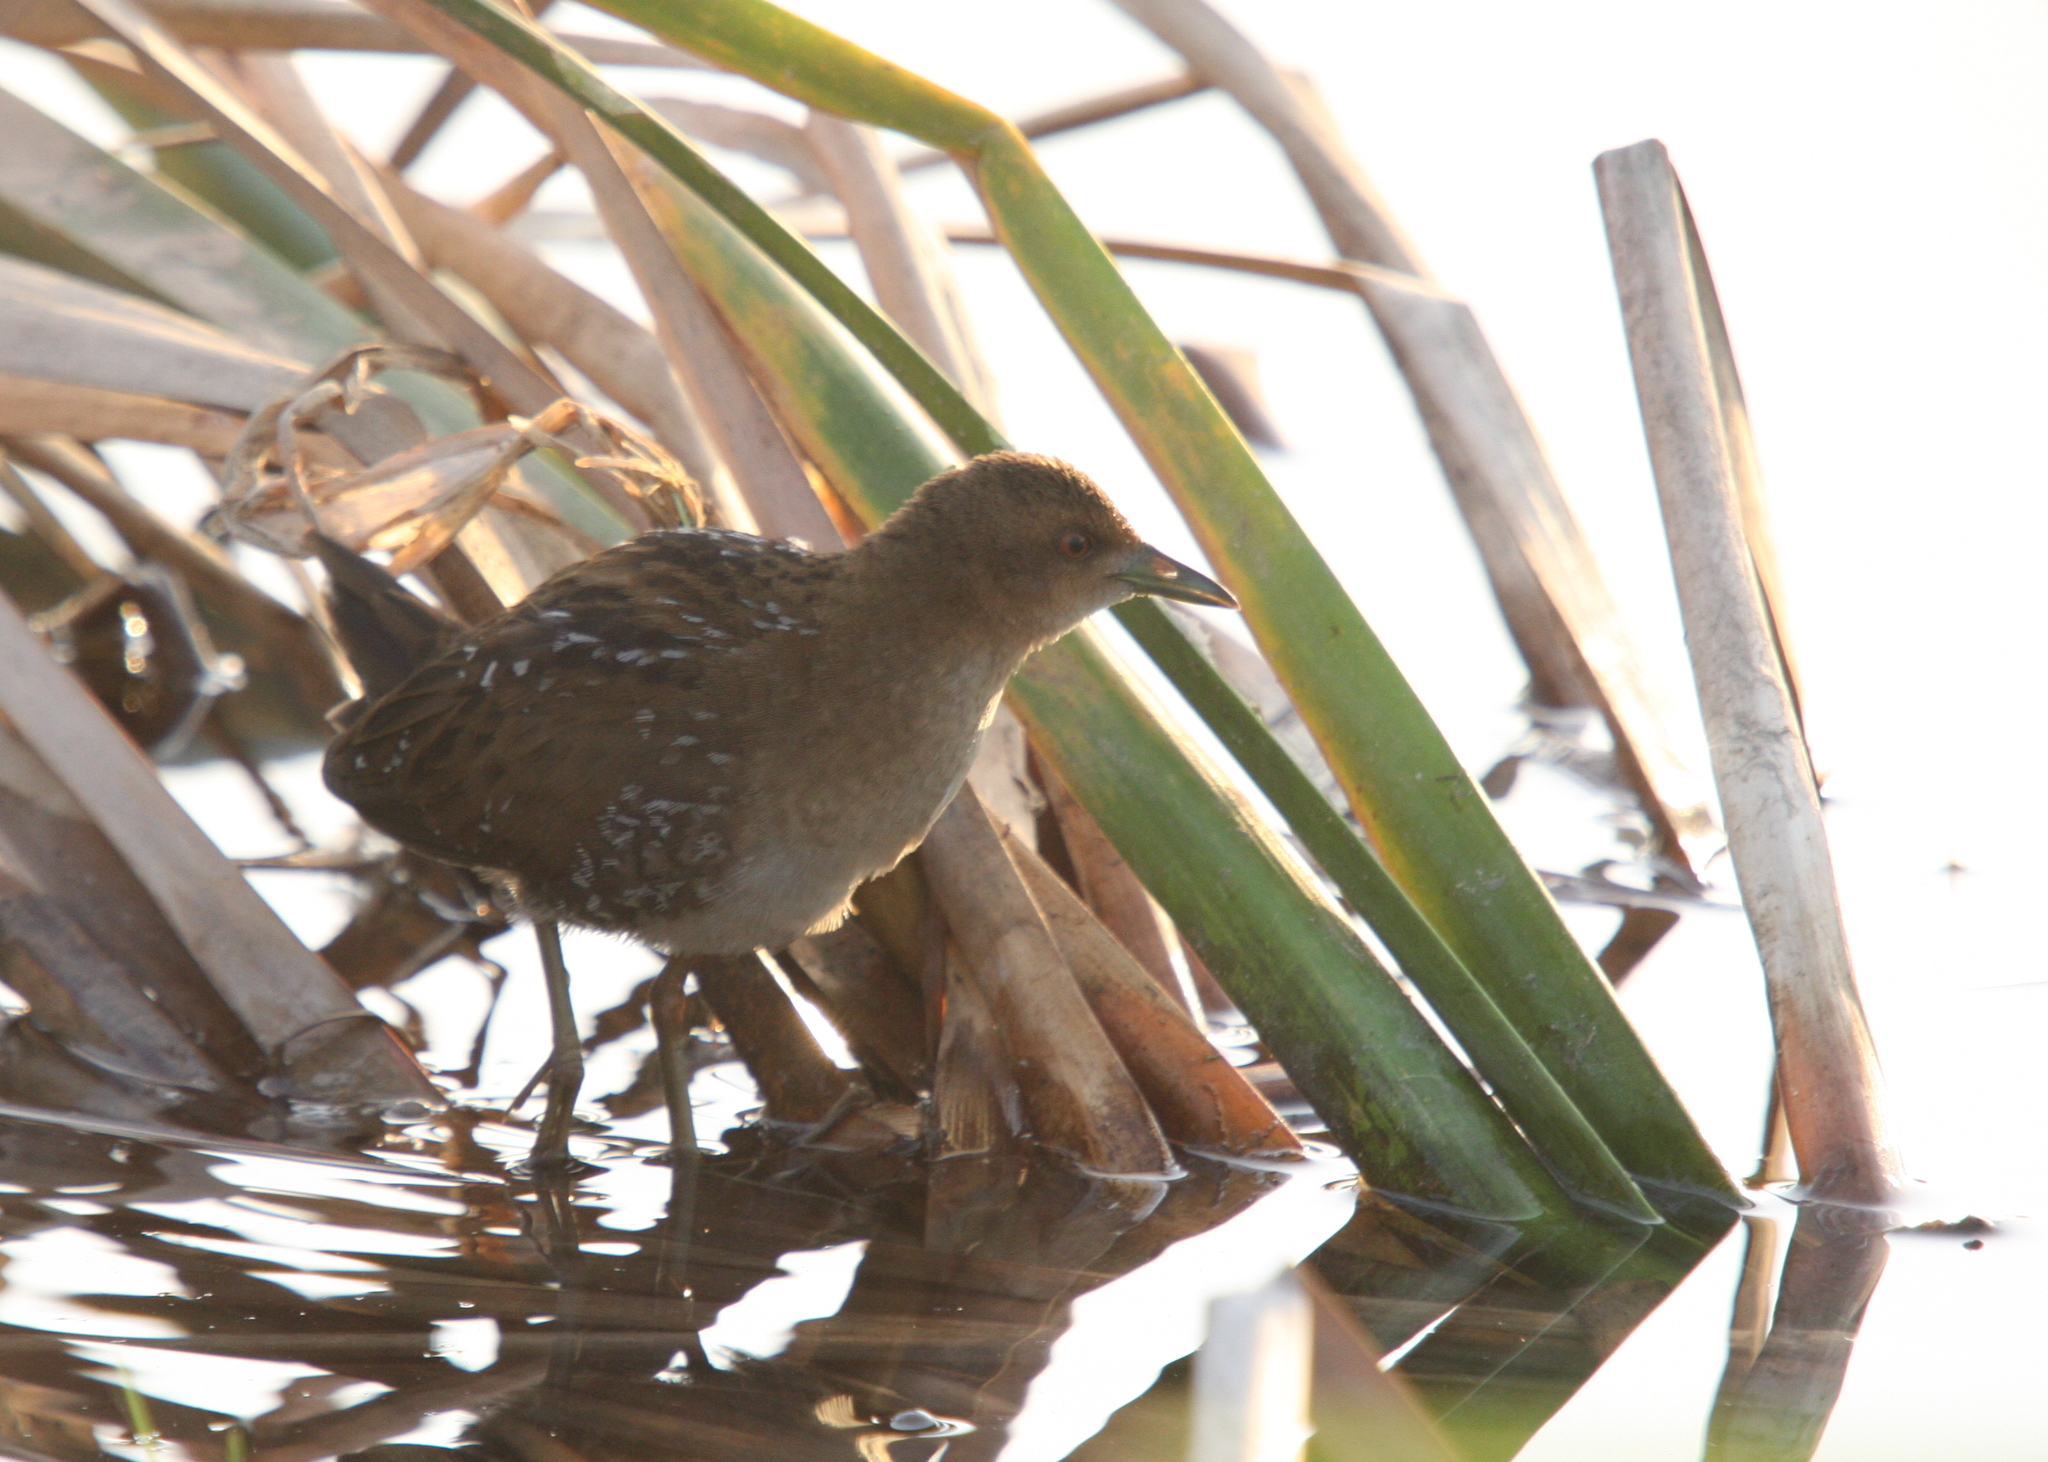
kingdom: Animalia
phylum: Chordata
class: Aves
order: Gruiformes
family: Rallidae
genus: Porzana
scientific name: Porzana pusilla
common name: Baillon's crake
